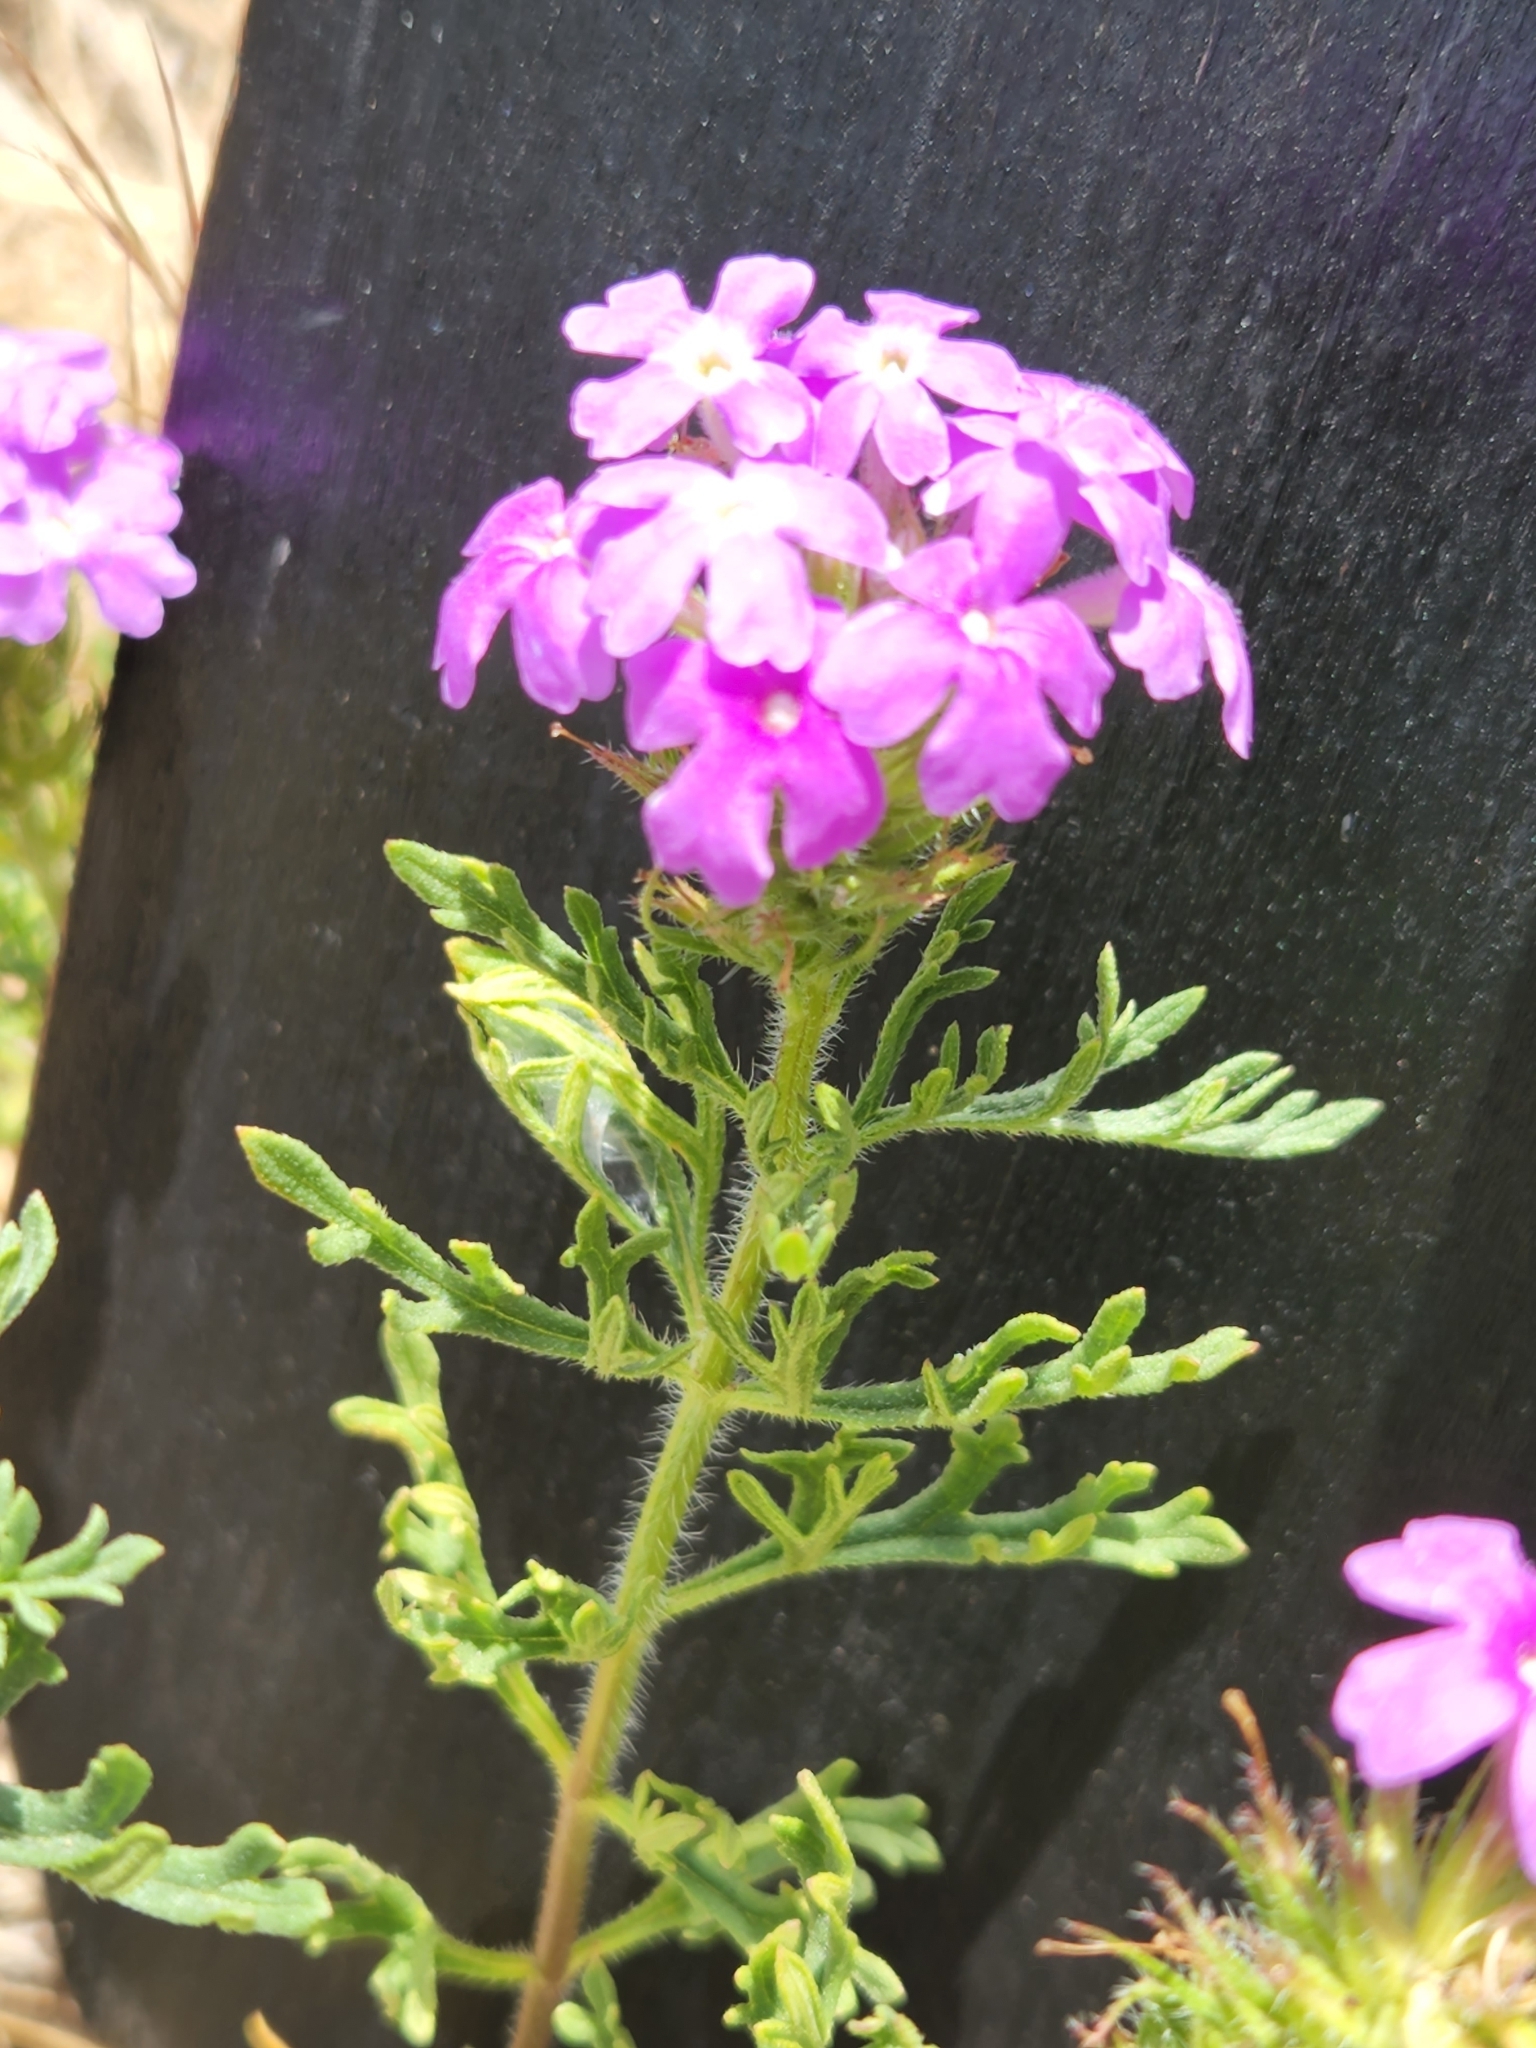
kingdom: Plantae
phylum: Tracheophyta
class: Magnoliopsida
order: Lamiales
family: Verbenaceae
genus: Verbena
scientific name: Verbena bipinnatifida
